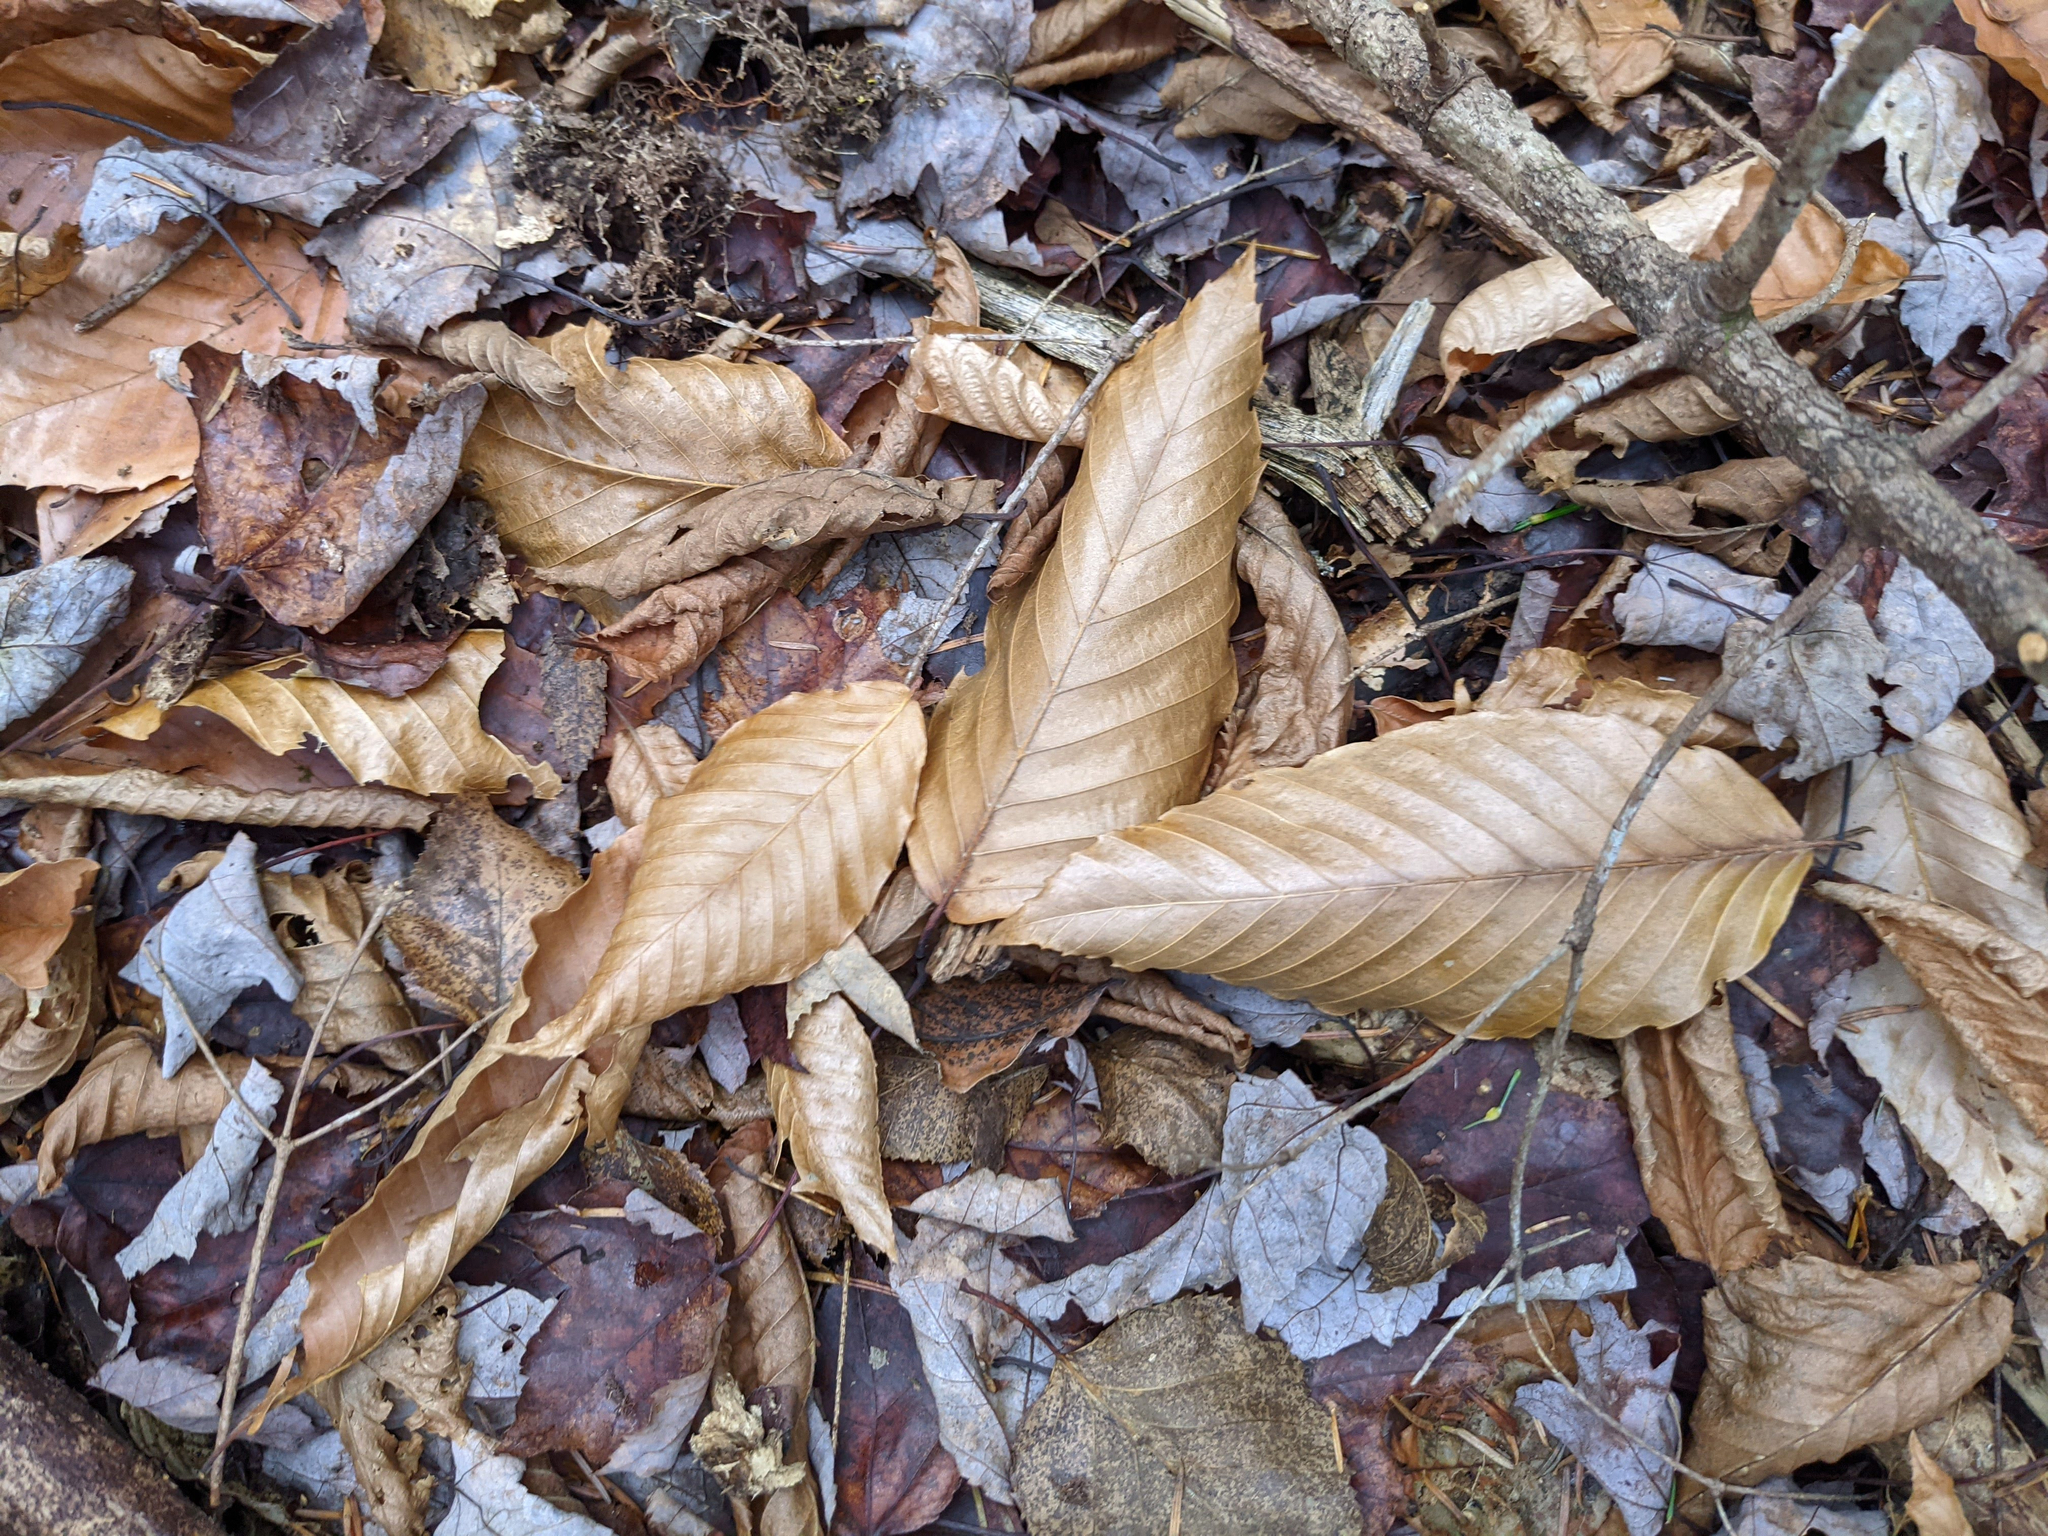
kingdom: Plantae
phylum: Tracheophyta
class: Magnoliopsida
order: Fagales
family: Fagaceae
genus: Fagus
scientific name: Fagus grandifolia
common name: American beech
